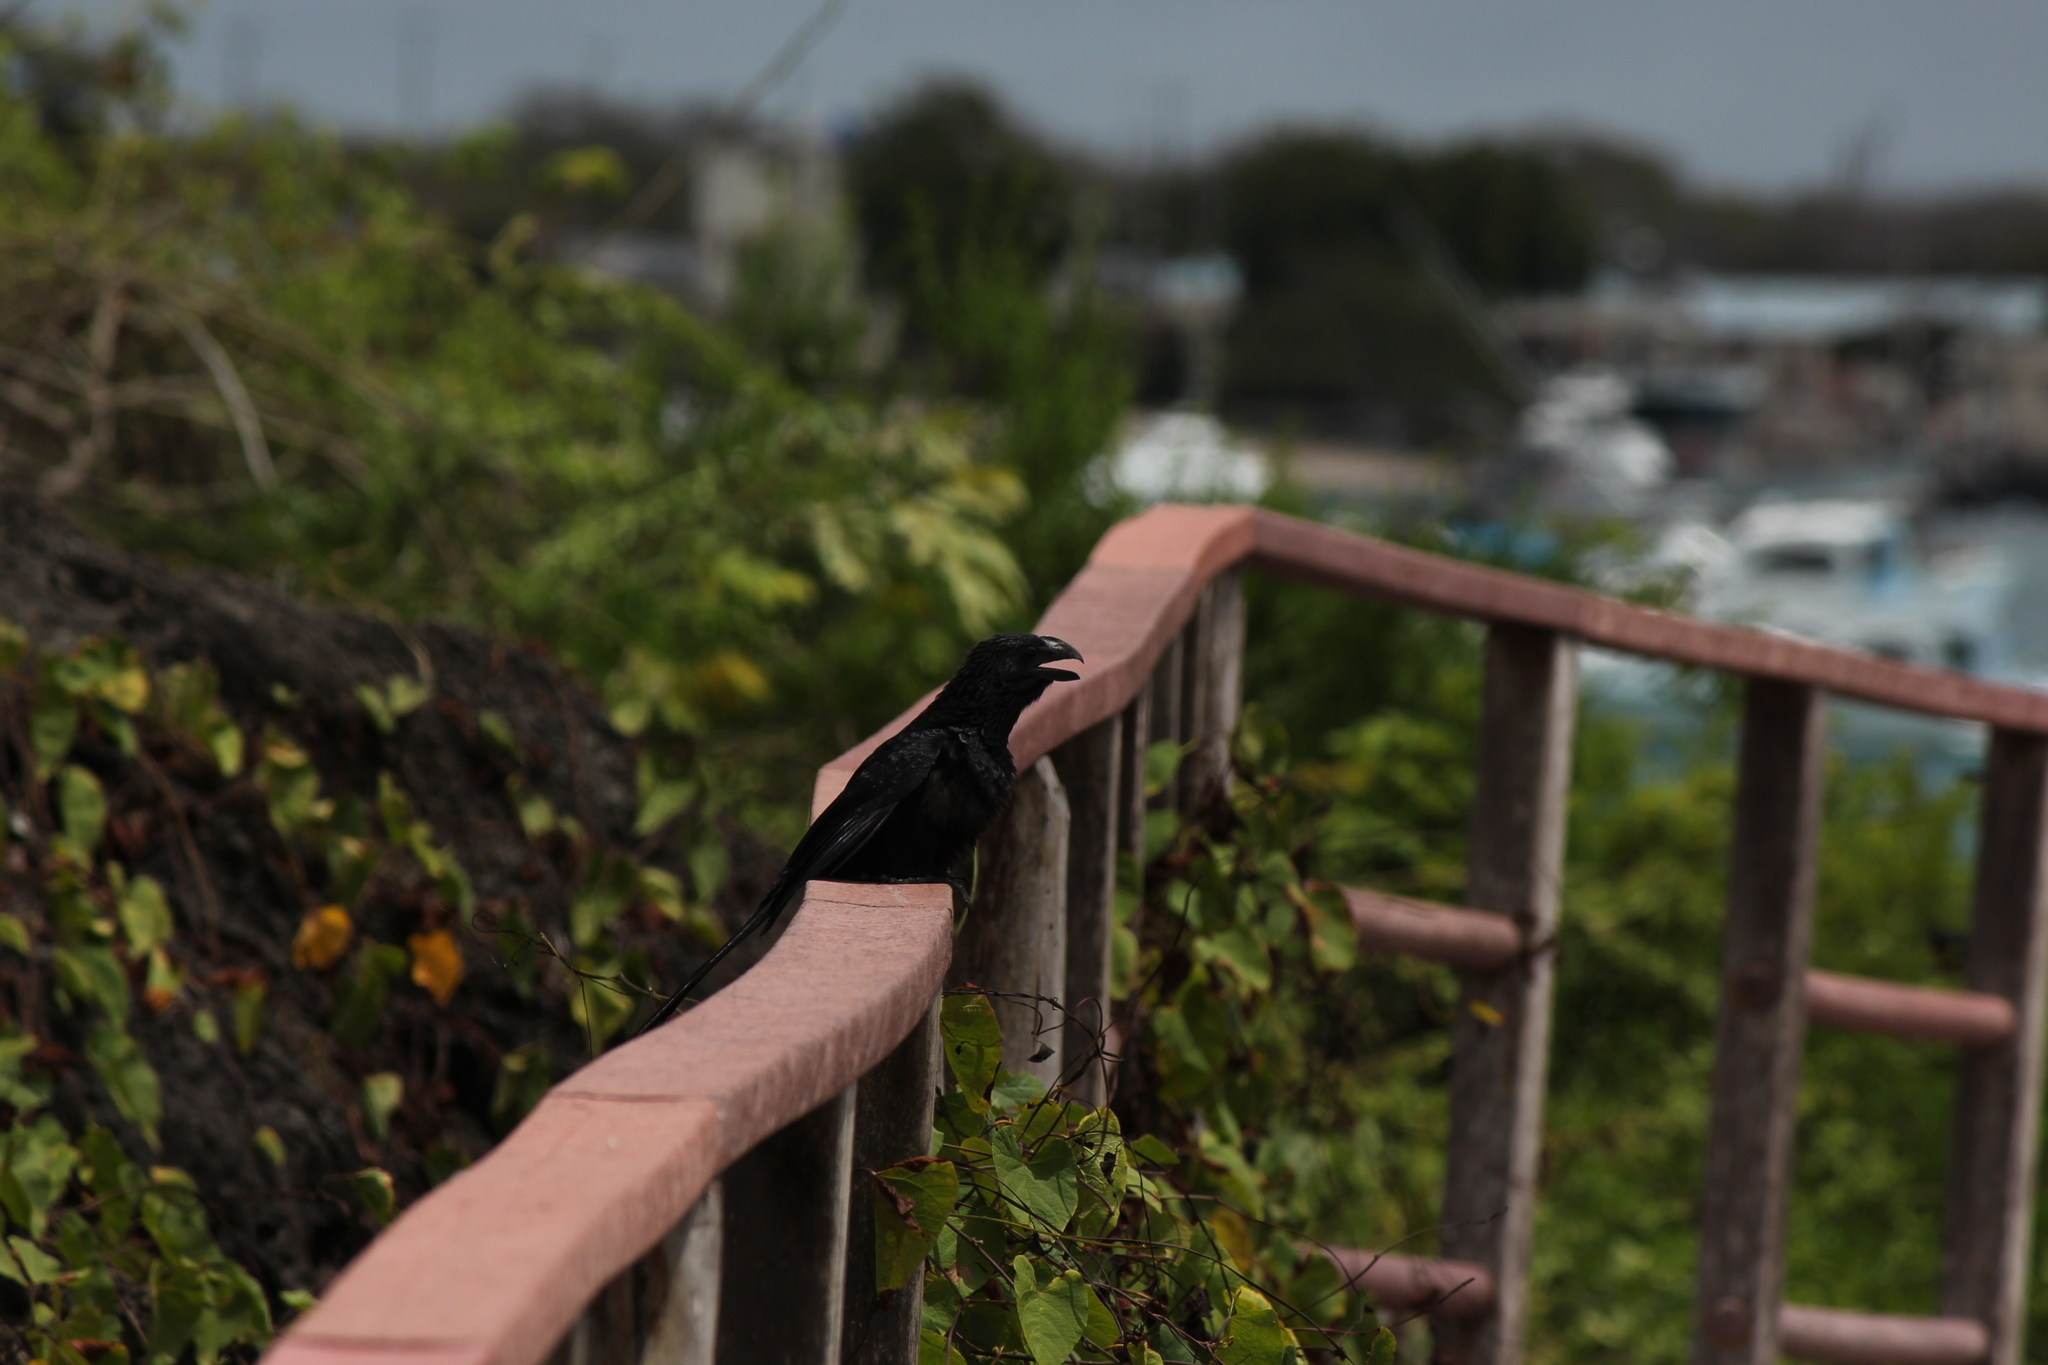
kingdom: Animalia
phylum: Chordata
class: Aves
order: Cuculiformes
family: Cuculidae
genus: Crotophaga
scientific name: Crotophaga ani
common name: Smooth-billed ani
